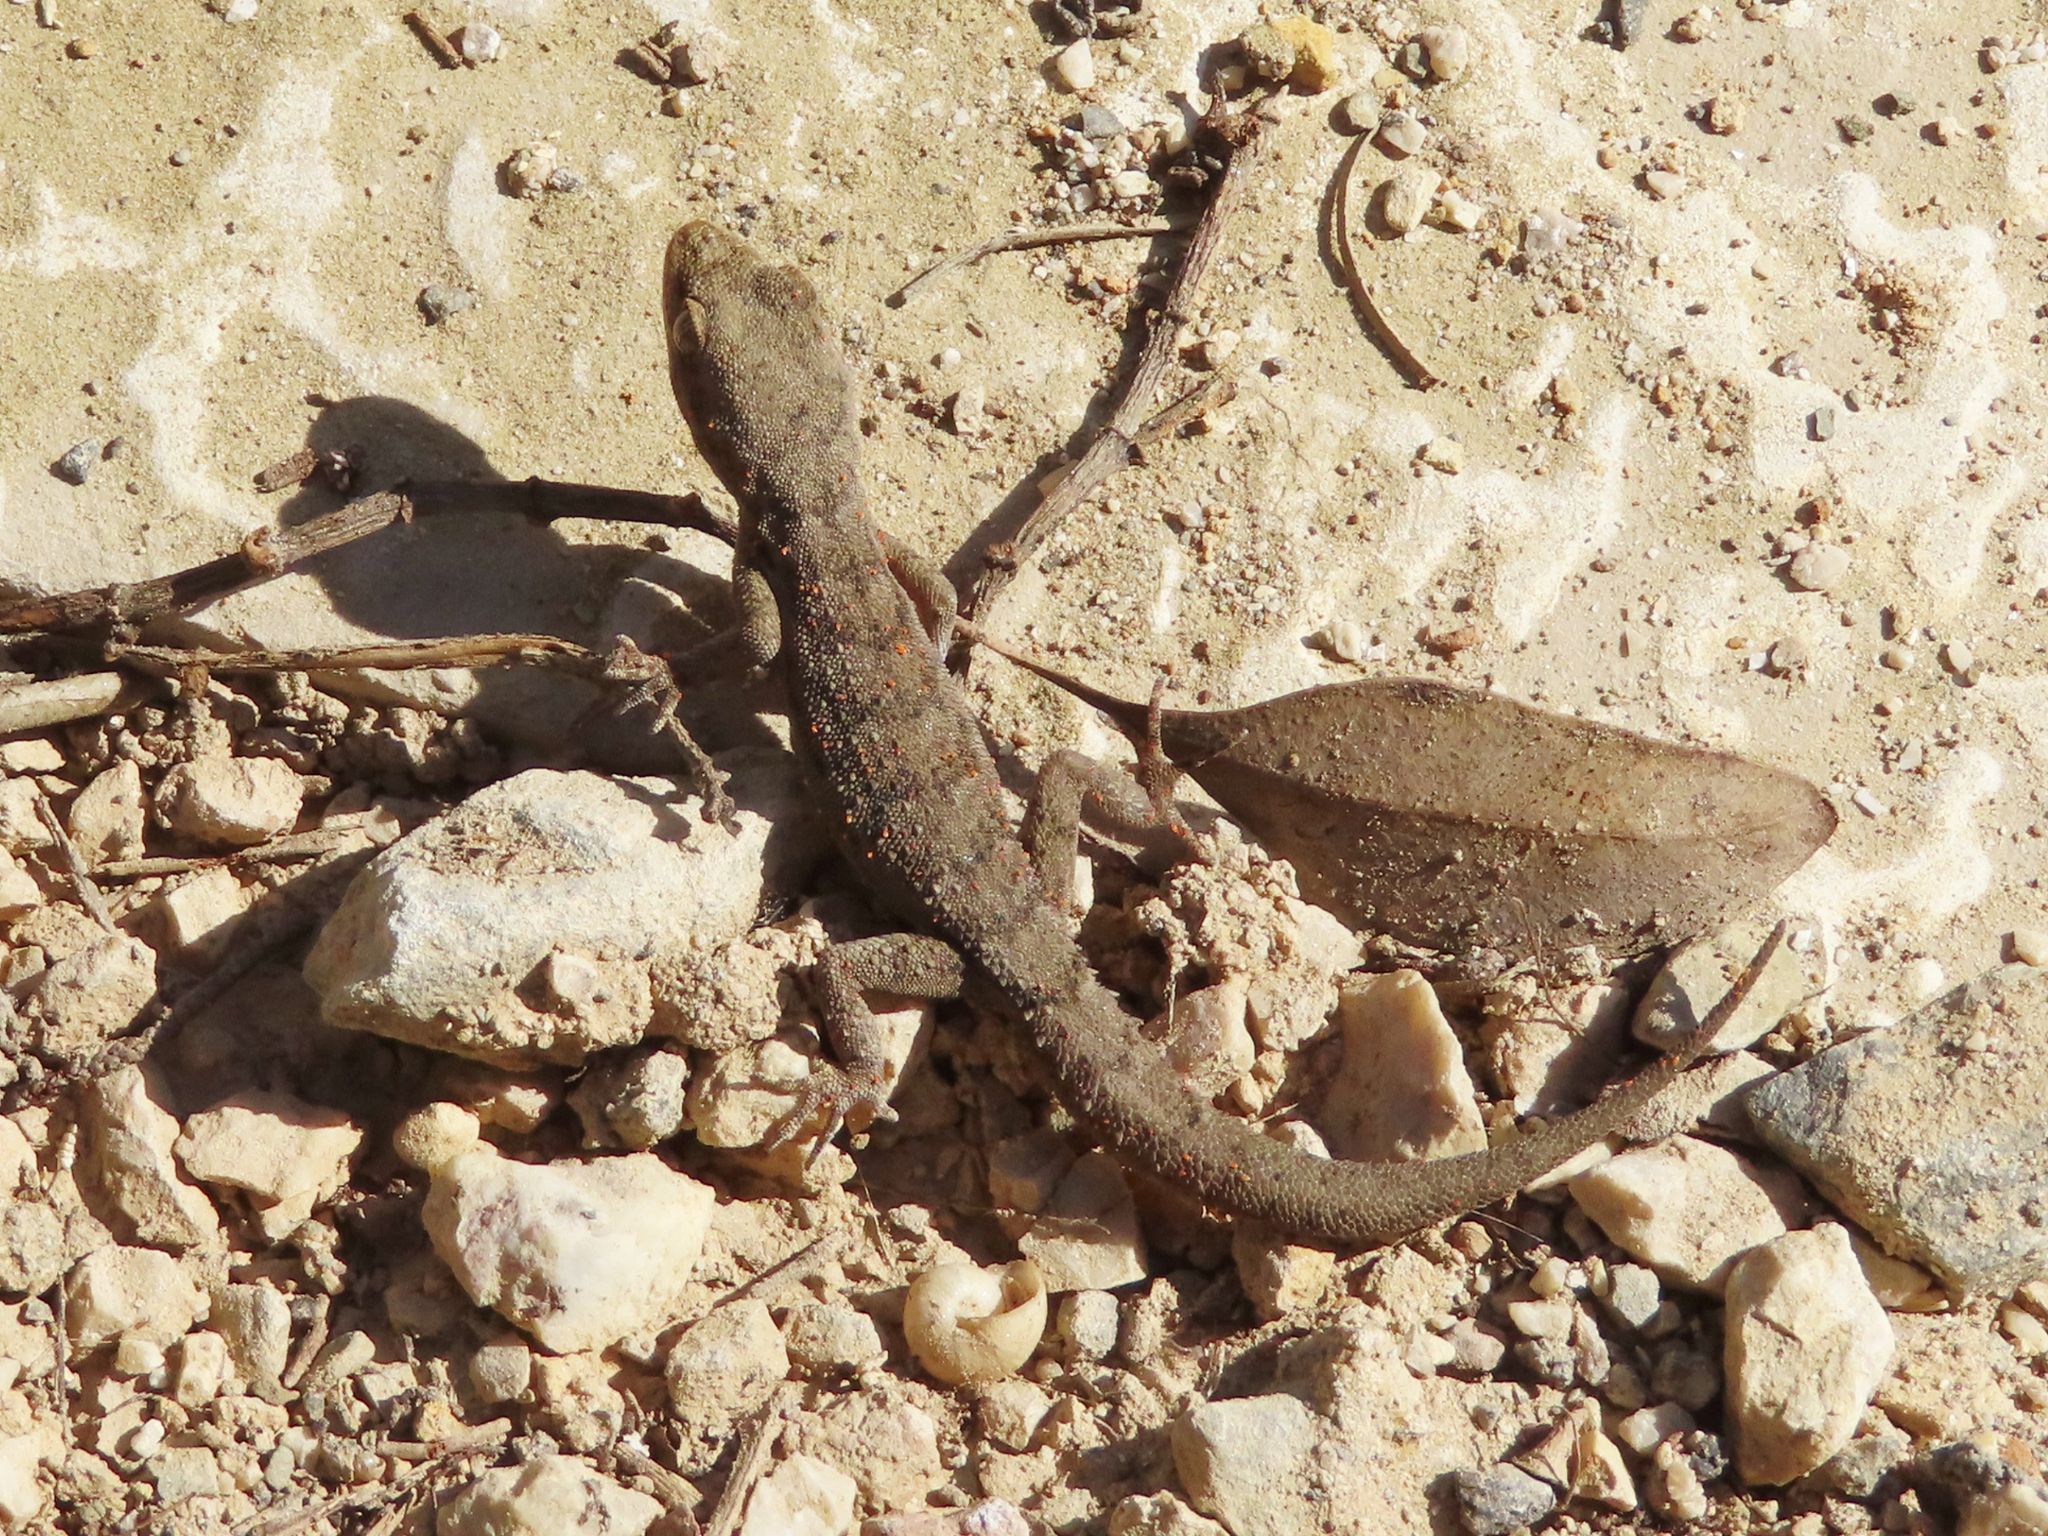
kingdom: Animalia
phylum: Chordata
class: Squamata
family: Gekkonidae
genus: Mediodactylus
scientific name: Mediodactylus oertzeni
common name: Mediterranean thin-toed gecko
